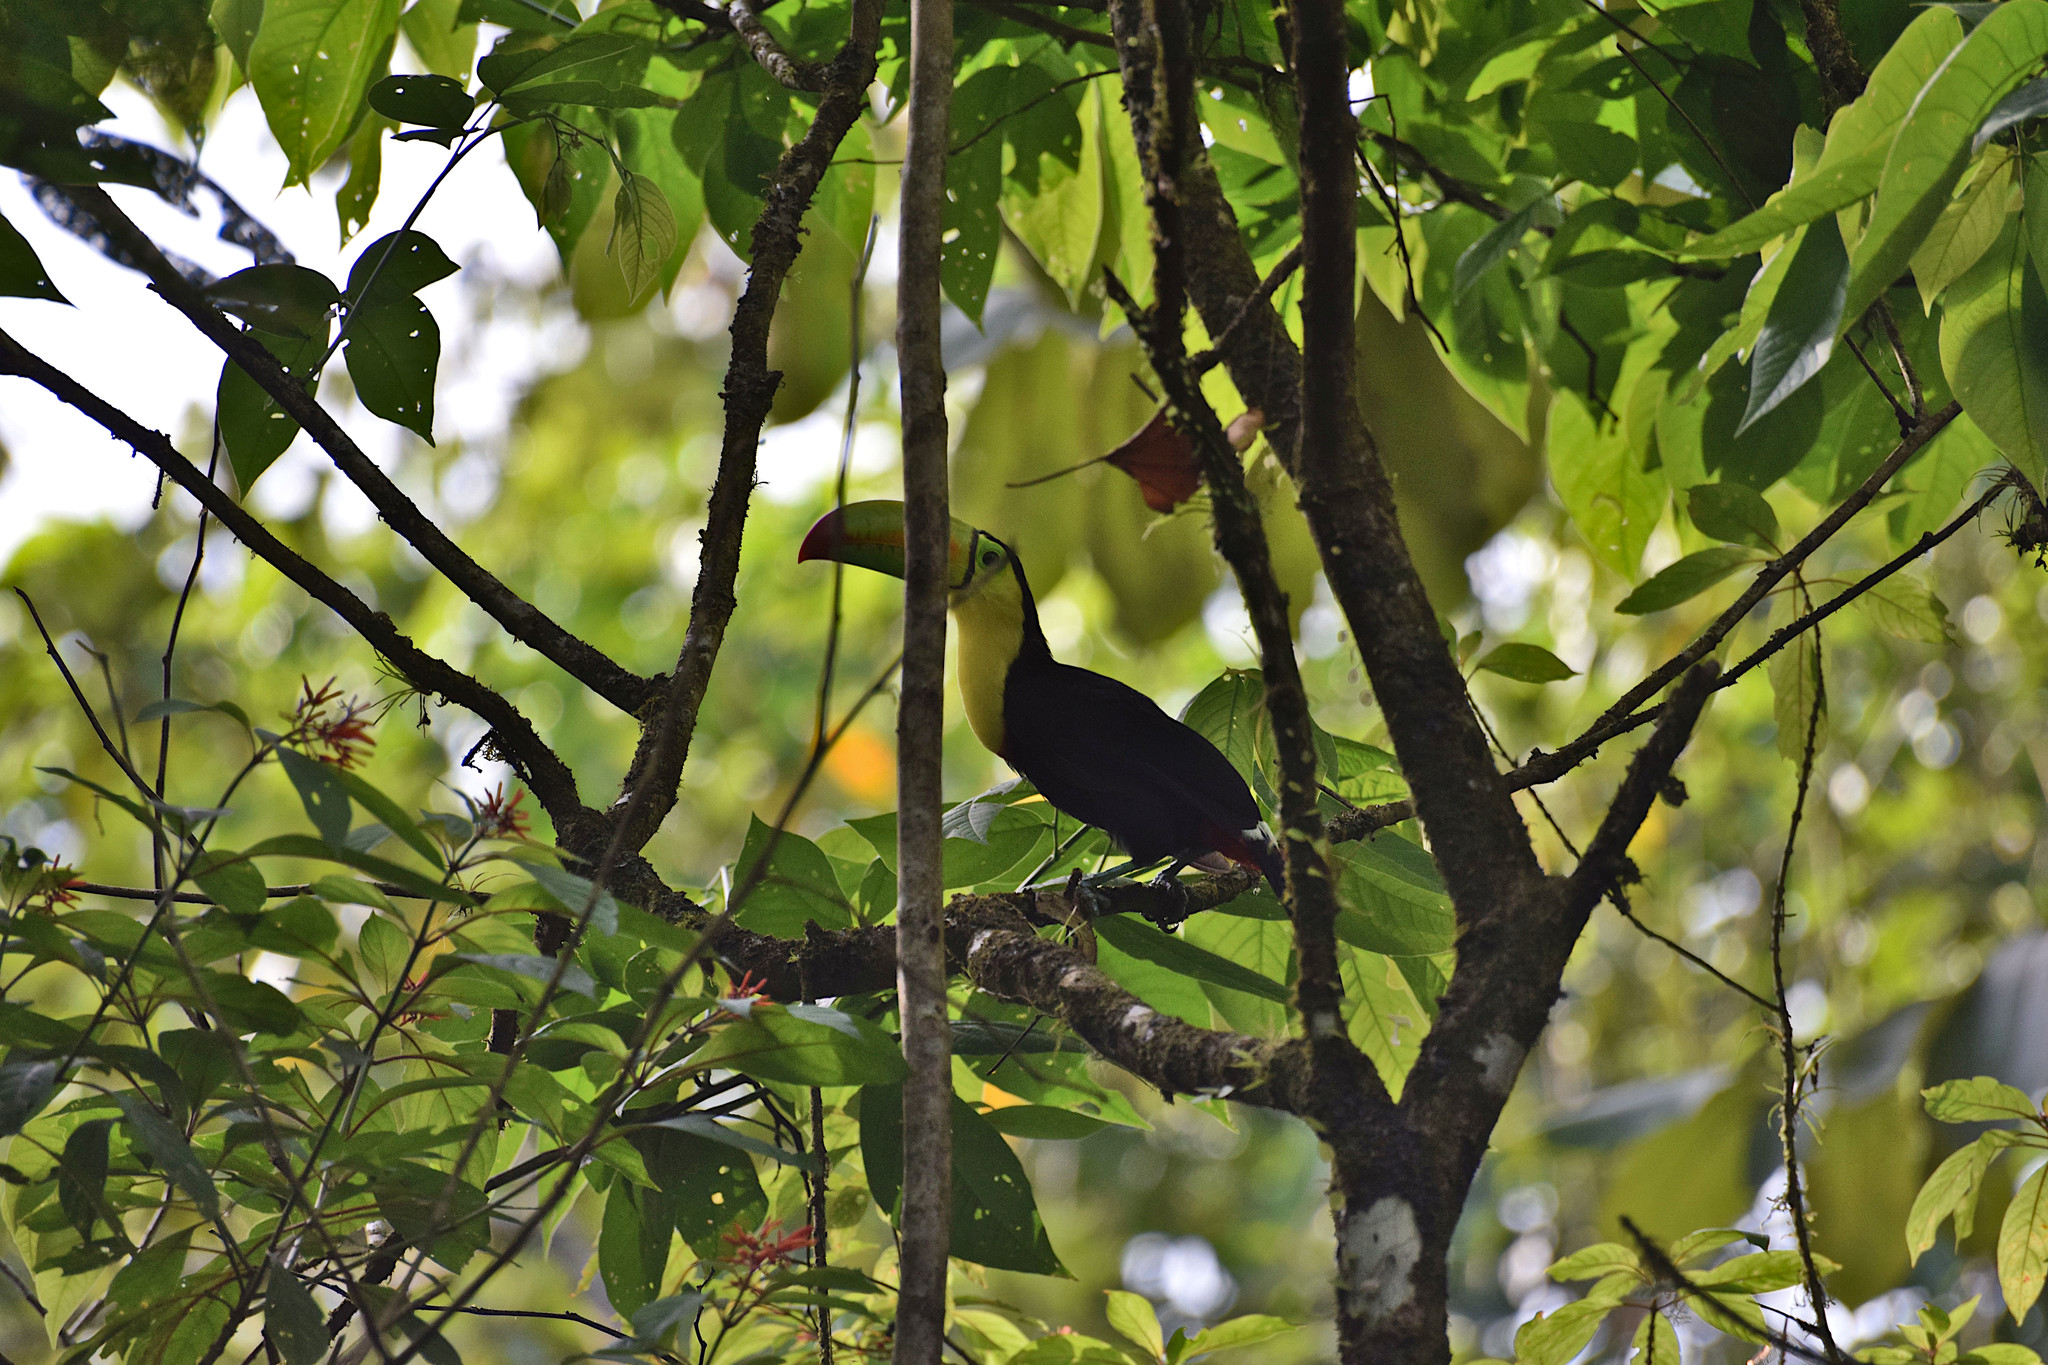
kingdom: Animalia
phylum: Chordata
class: Aves
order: Piciformes
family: Ramphastidae
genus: Ramphastos
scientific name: Ramphastos sulfuratus
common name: Keel-billed toucan
